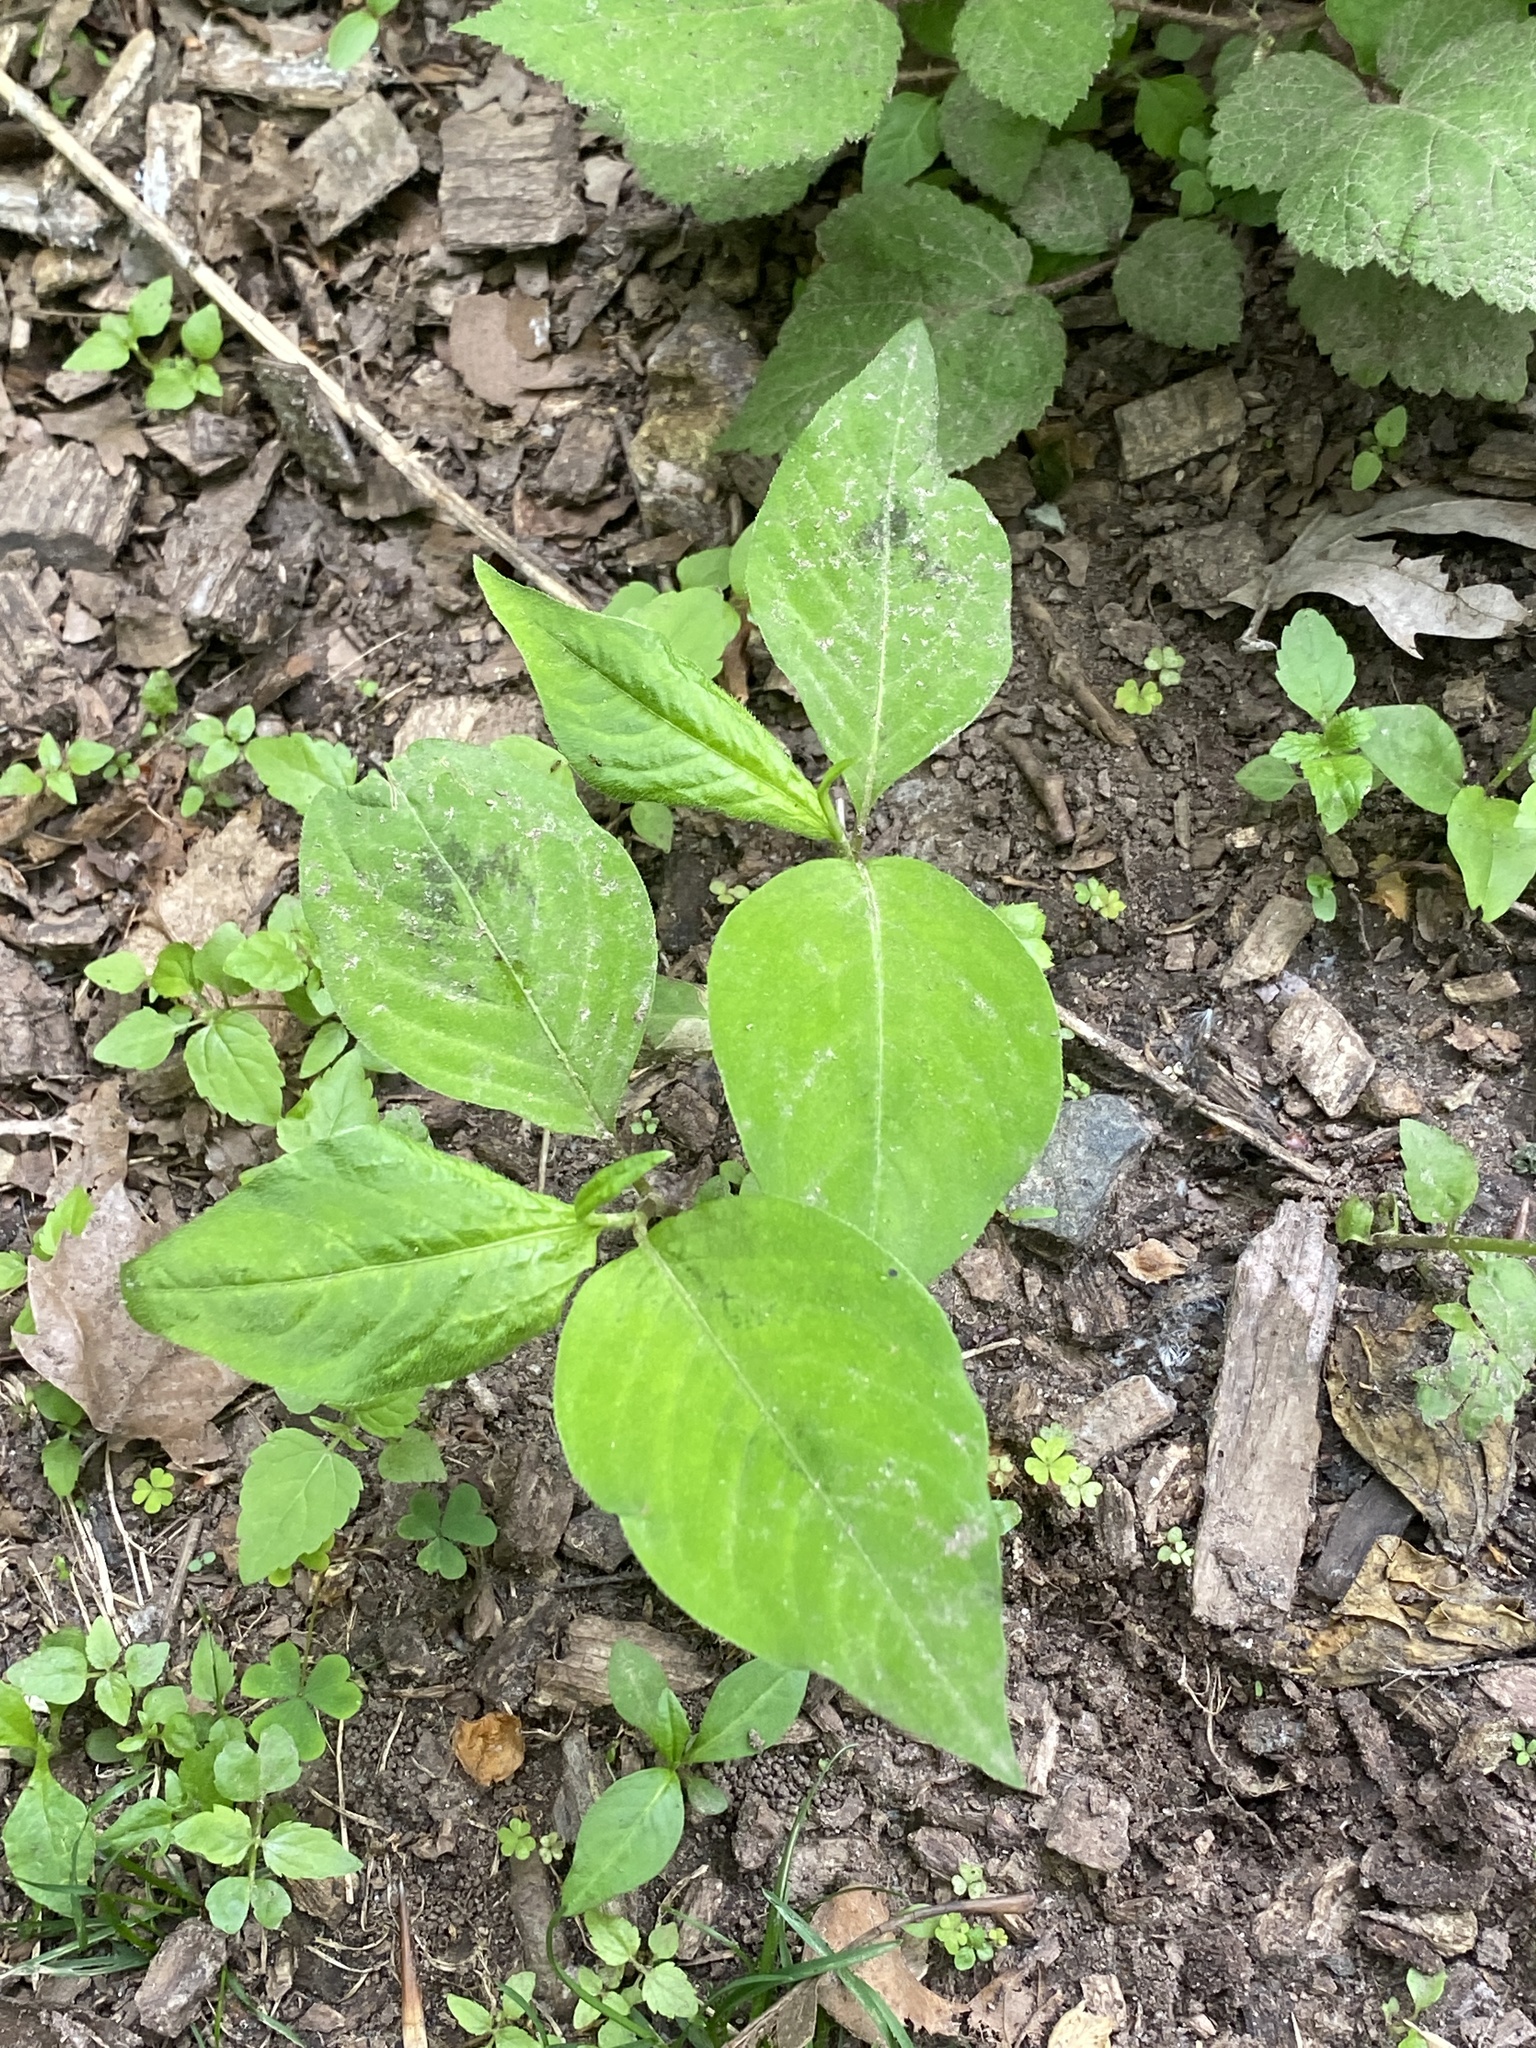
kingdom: Plantae
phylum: Tracheophyta
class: Magnoliopsida
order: Caryophyllales
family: Polygonaceae
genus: Persicaria
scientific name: Persicaria virginiana
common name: Jumpseed
